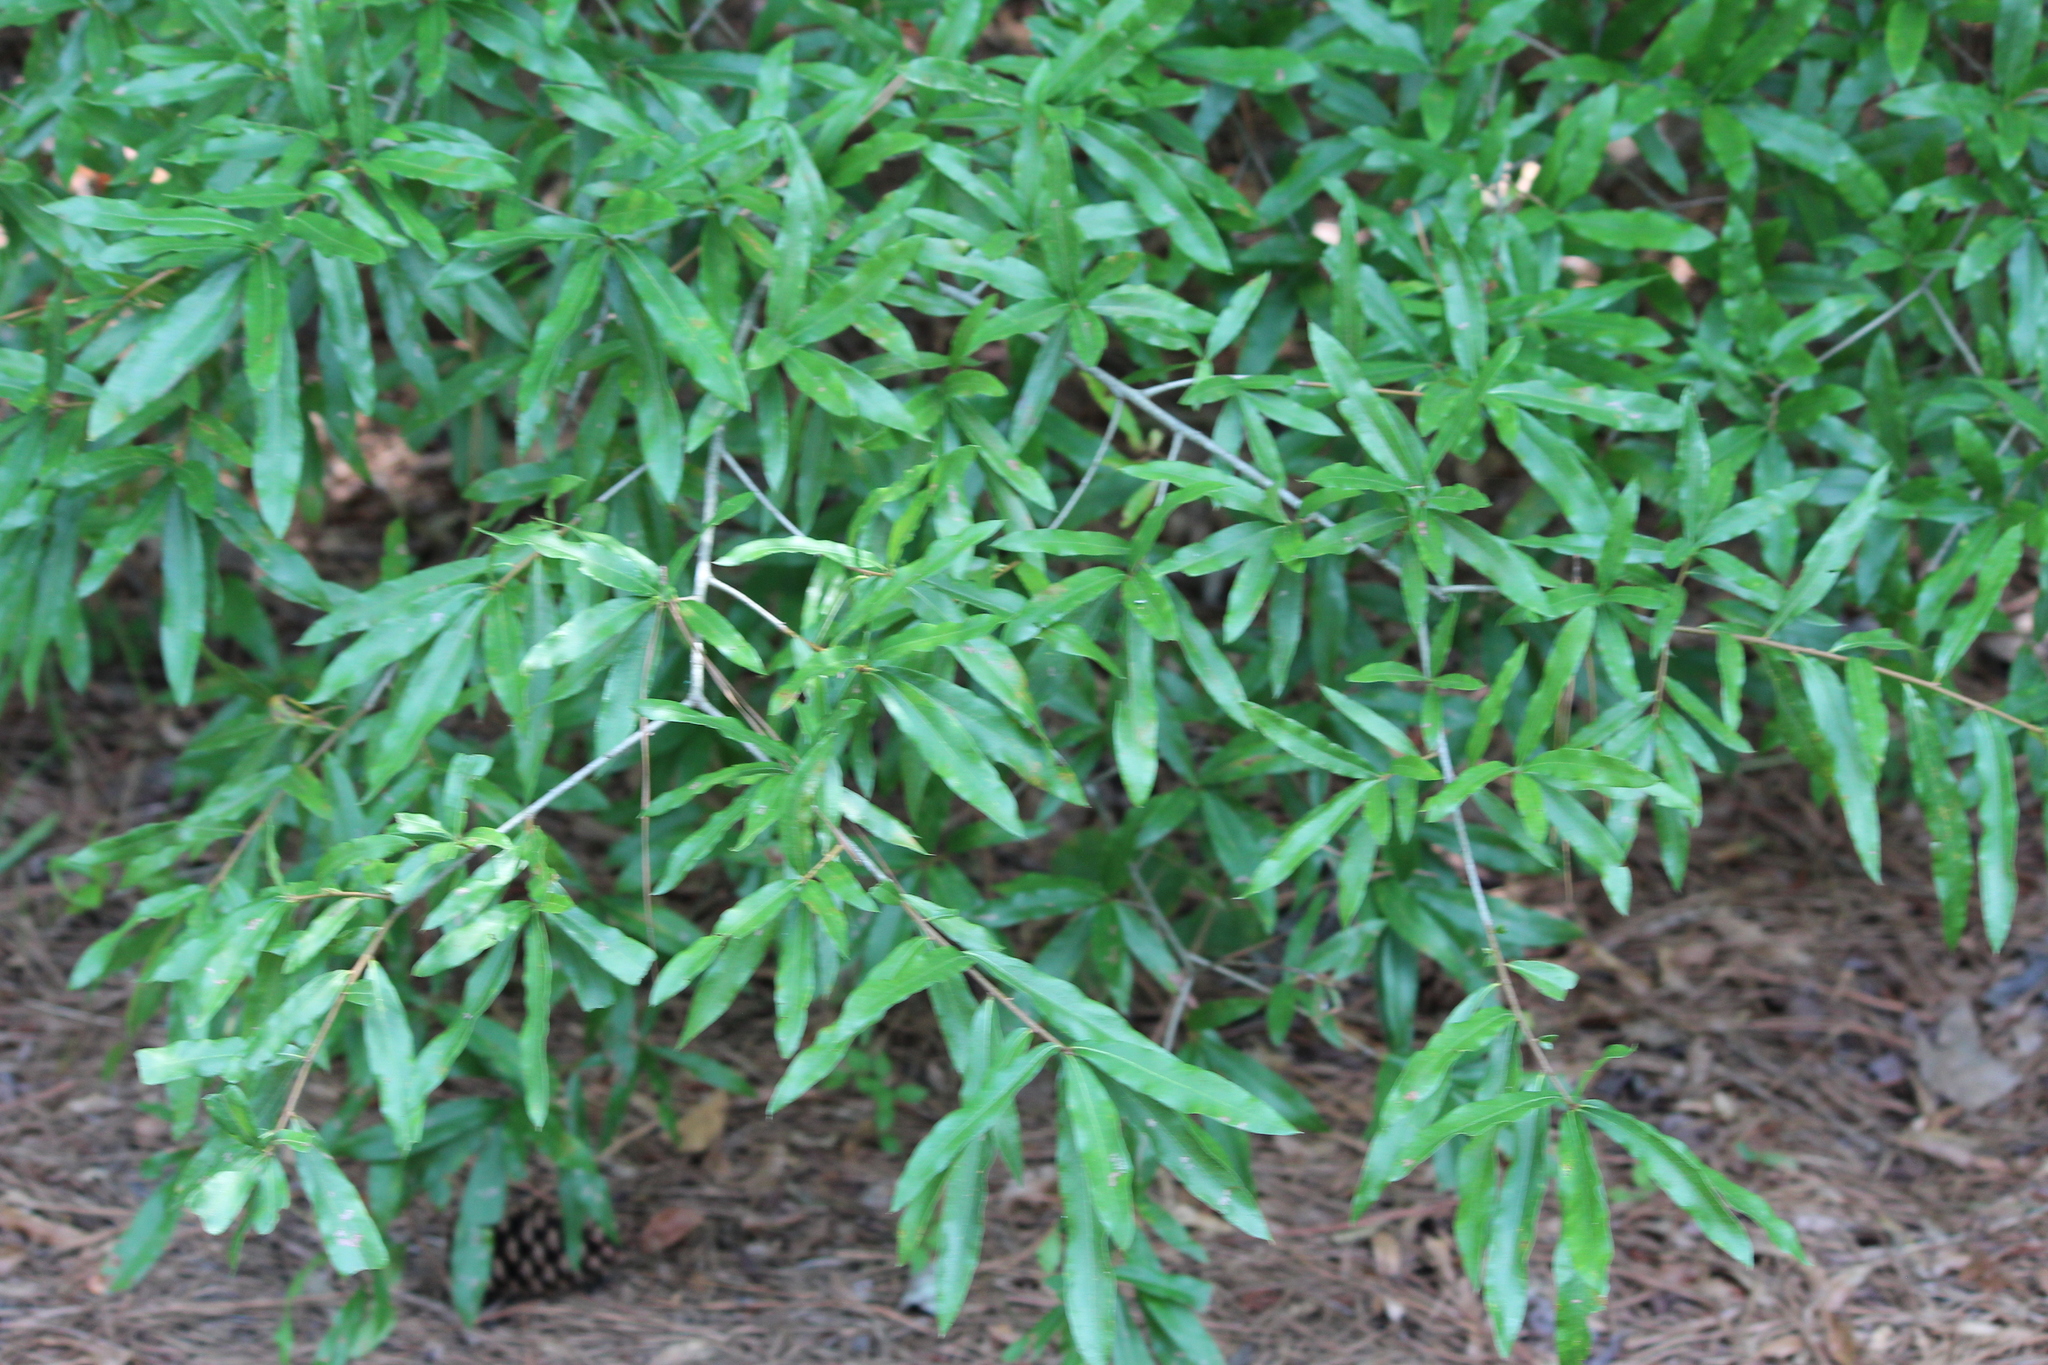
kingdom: Plantae
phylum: Tracheophyta
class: Magnoliopsida
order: Fagales
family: Fagaceae
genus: Quercus
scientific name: Quercus phellos
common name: Willow oak
